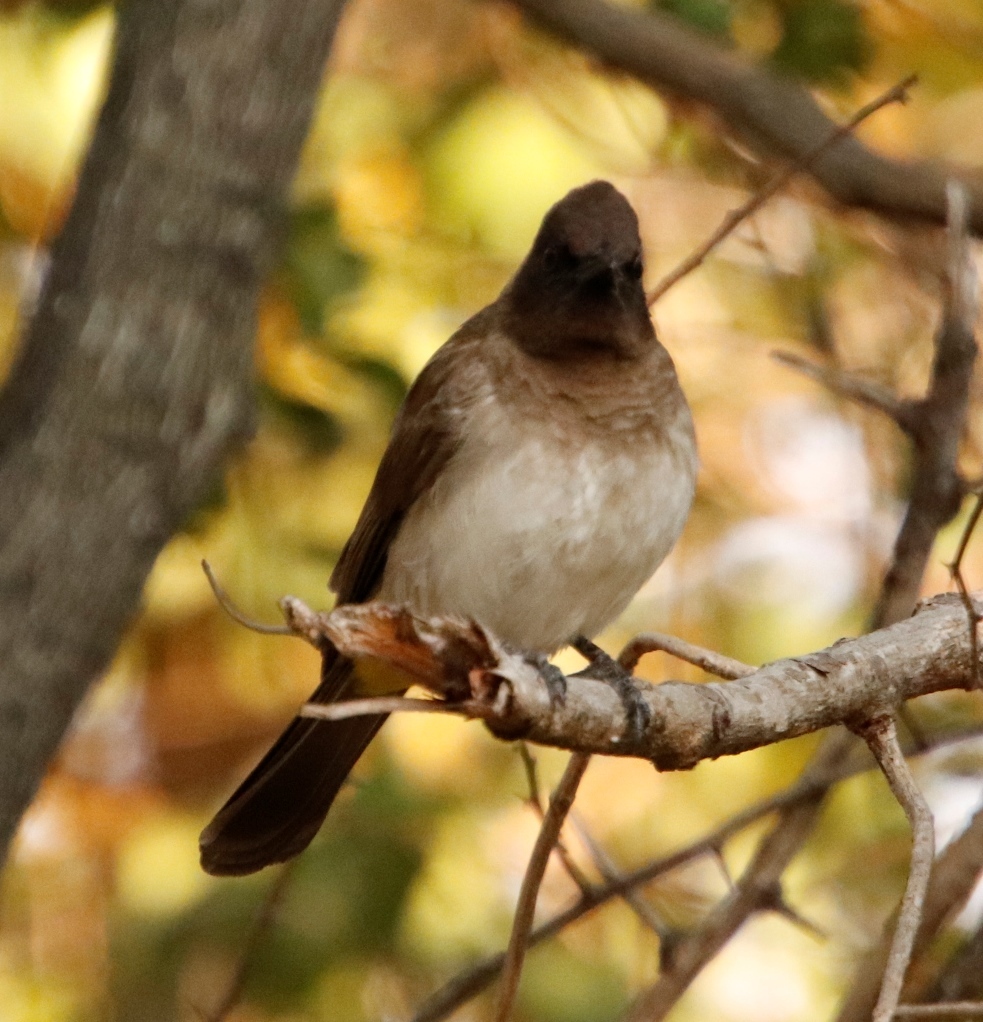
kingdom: Animalia
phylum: Chordata
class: Aves
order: Passeriformes
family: Pycnonotidae
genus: Pycnonotus
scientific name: Pycnonotus barbatus
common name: Common bulbul
